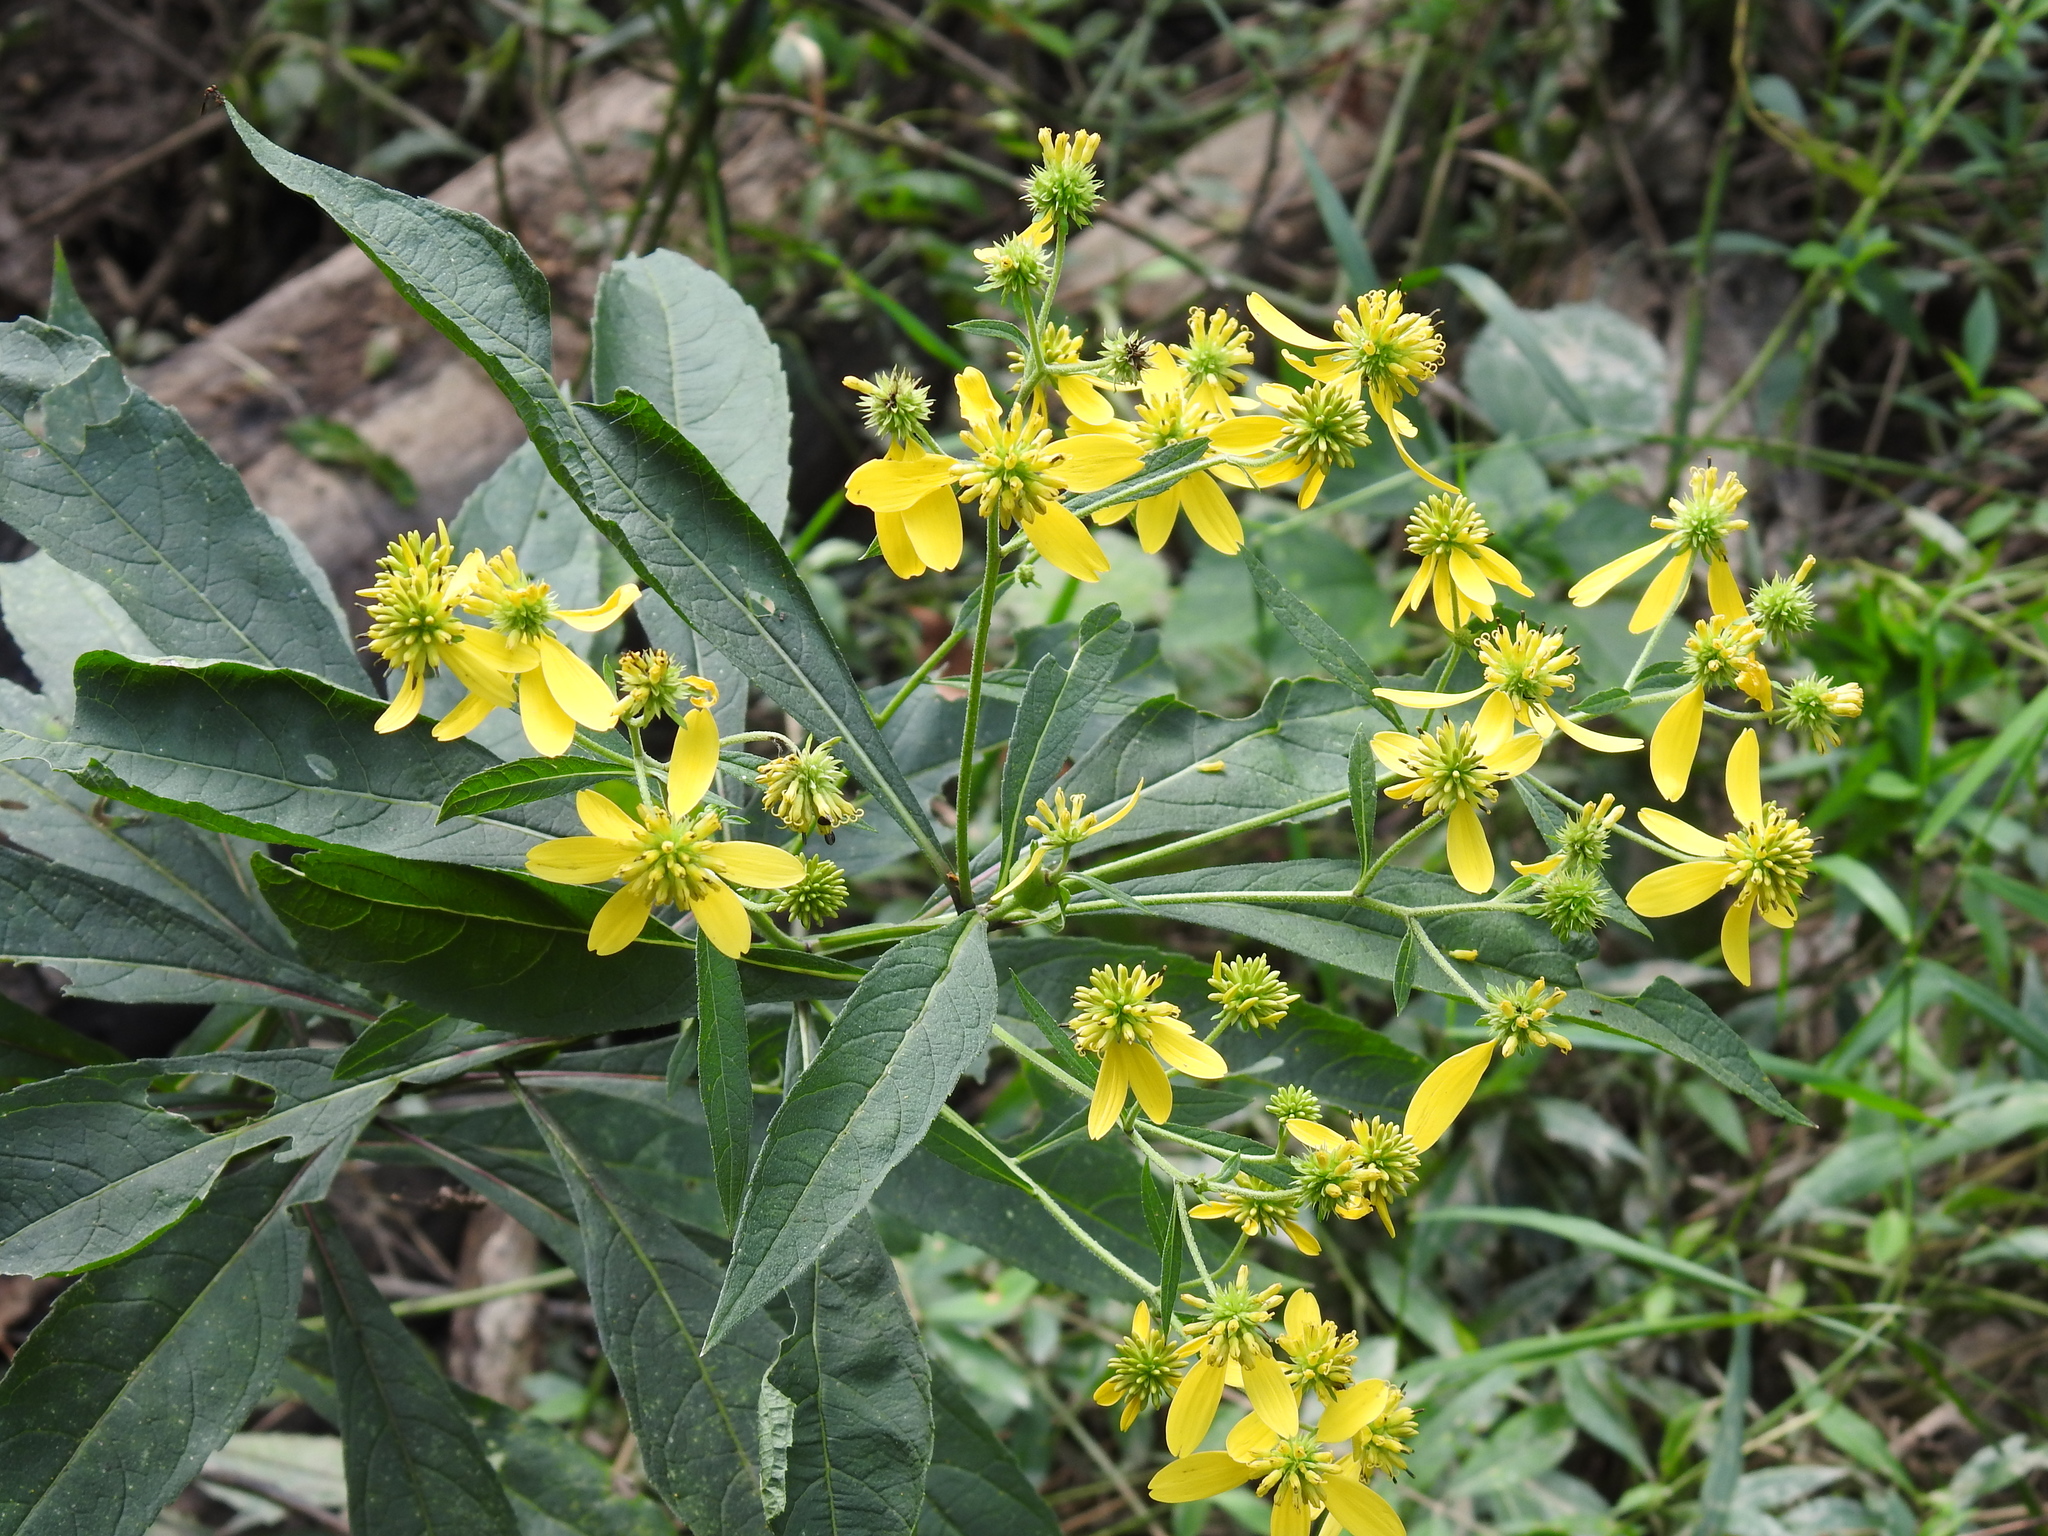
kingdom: Plantae
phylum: Tracheophyta
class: Magnoliopsida
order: Asterales
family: Asteraceae
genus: Verbesina
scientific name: Verbesina alternifolia
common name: Wingstem
